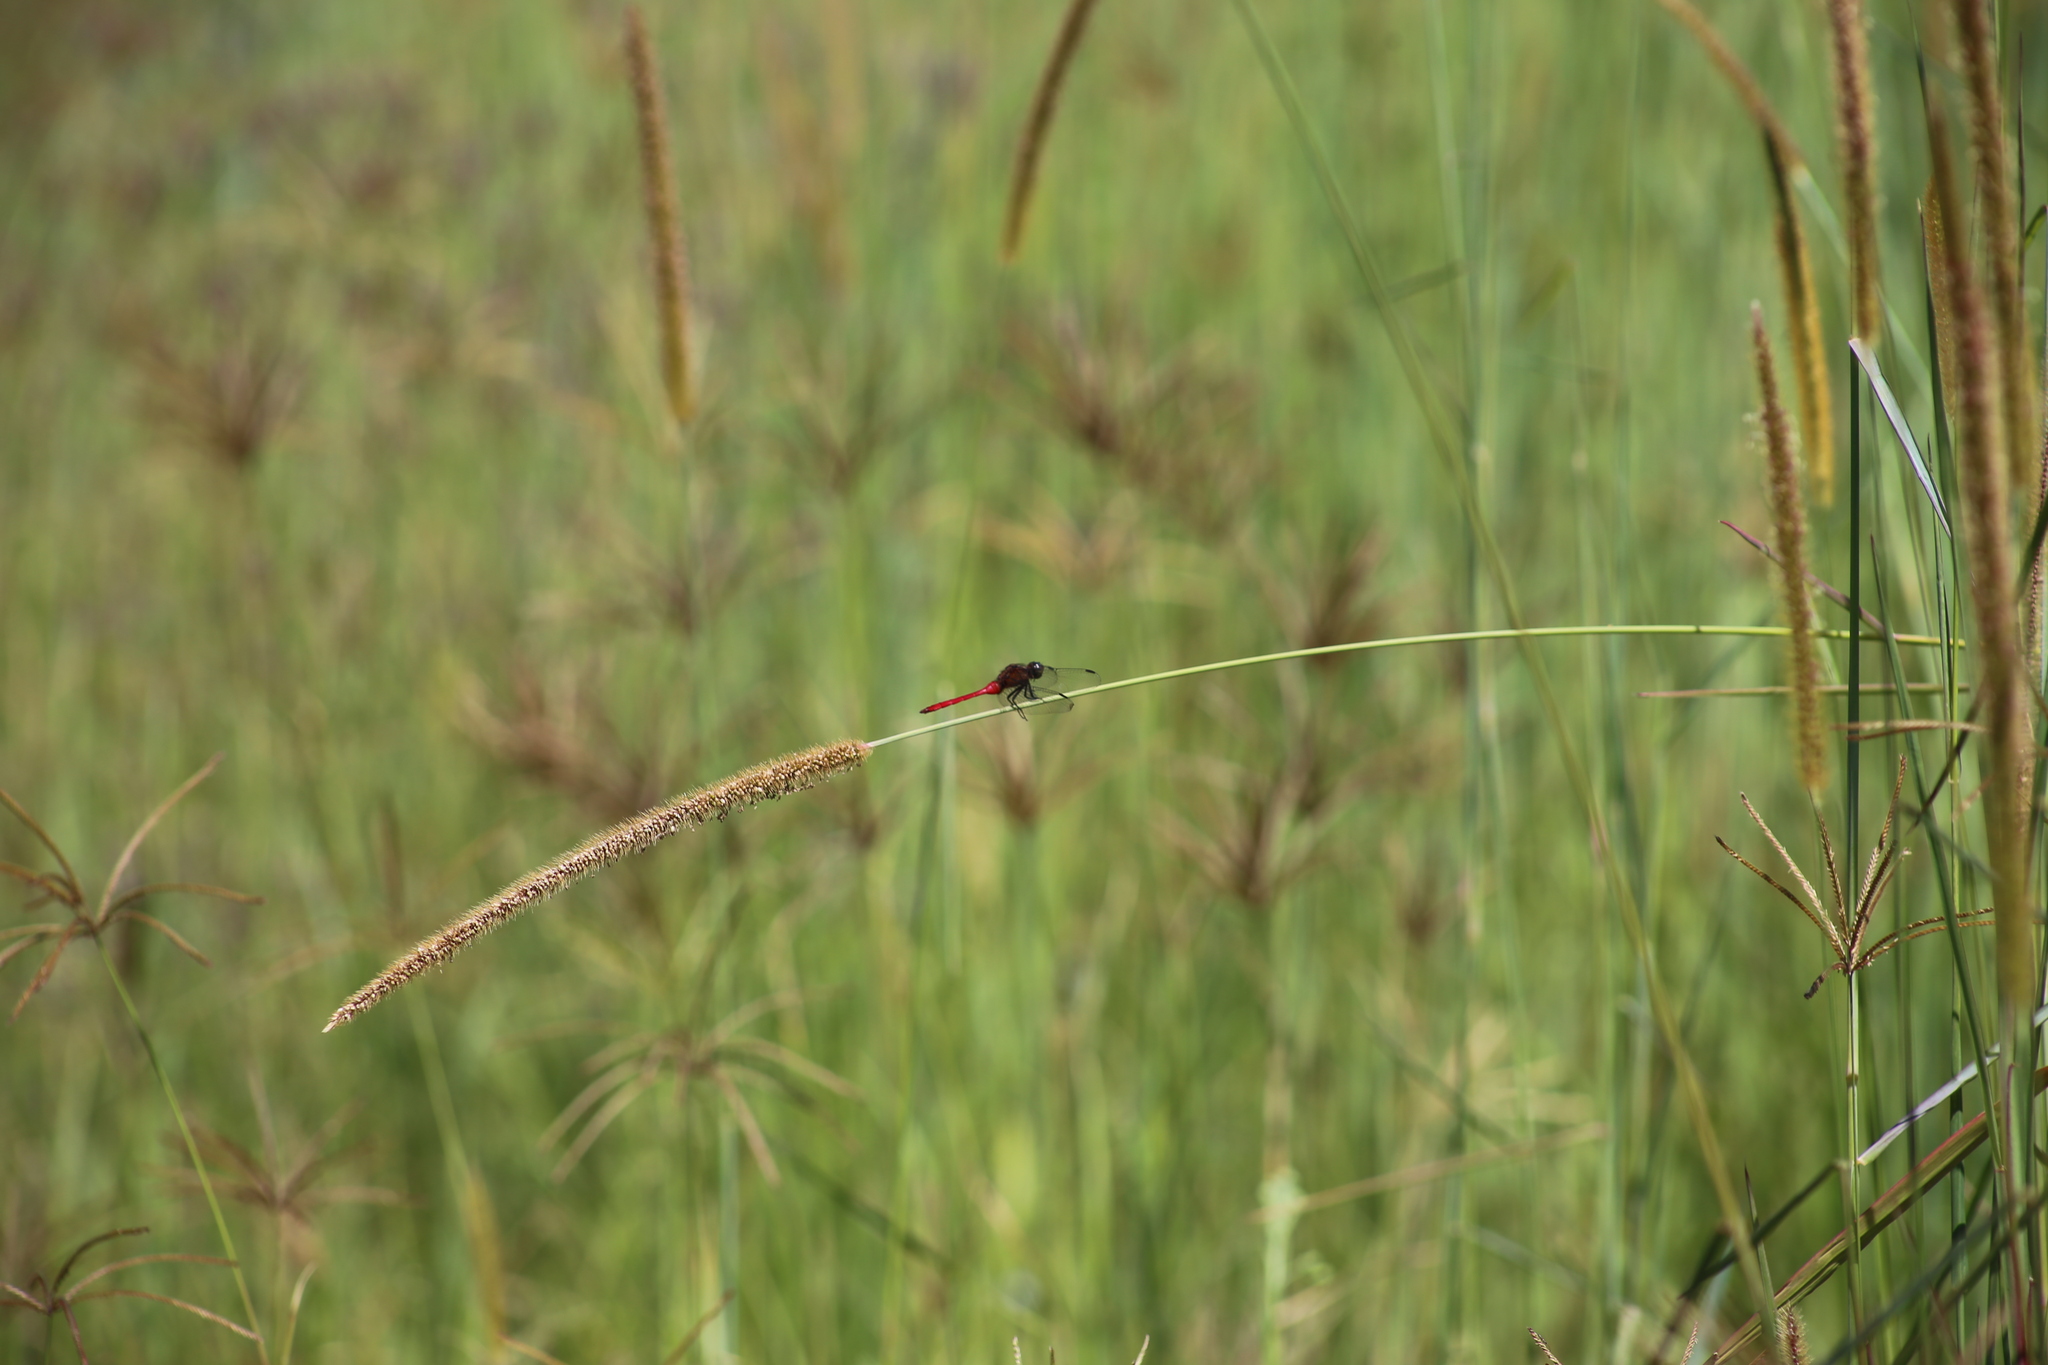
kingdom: Animalia
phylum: Arthropoda
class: Insecta
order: Odonata
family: Libellulidae
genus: Orthetrum
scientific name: Orthetrum villosovittatum
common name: Firery skimmer
